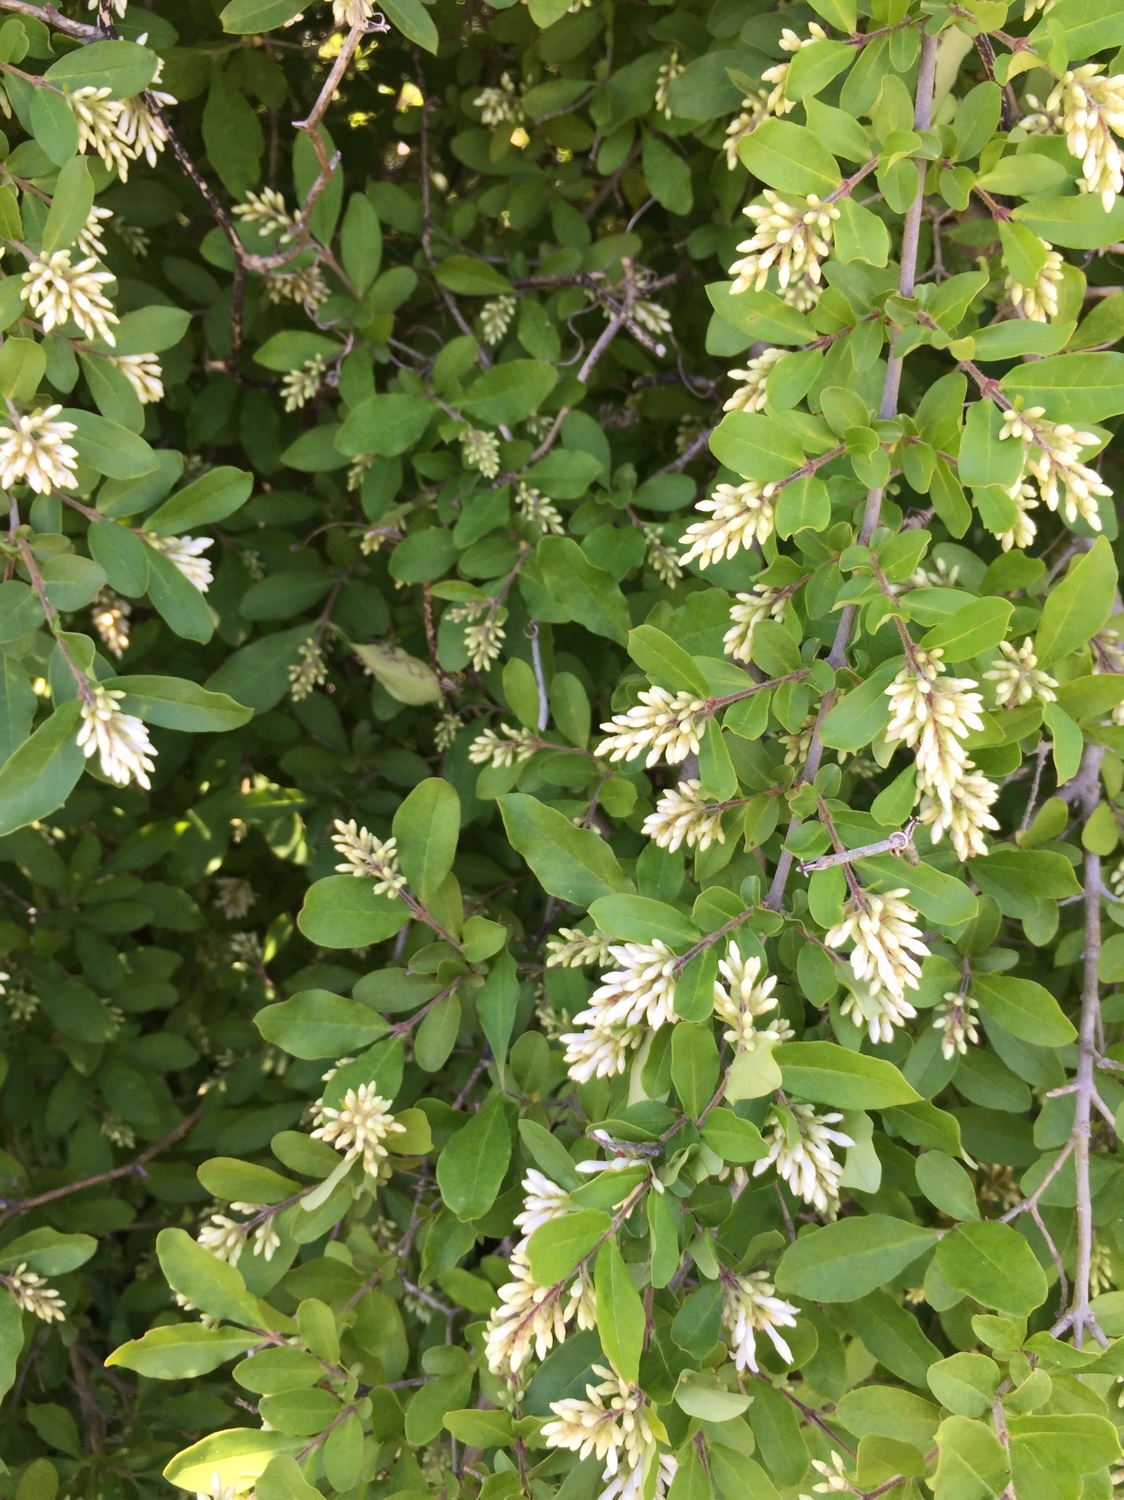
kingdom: Plantae
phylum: Tracheophyta
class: Magnoliopsida
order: Lamiales
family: Oleaceae
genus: Ligustrum
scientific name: Ligustrum obtusifolium
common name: Border privet
